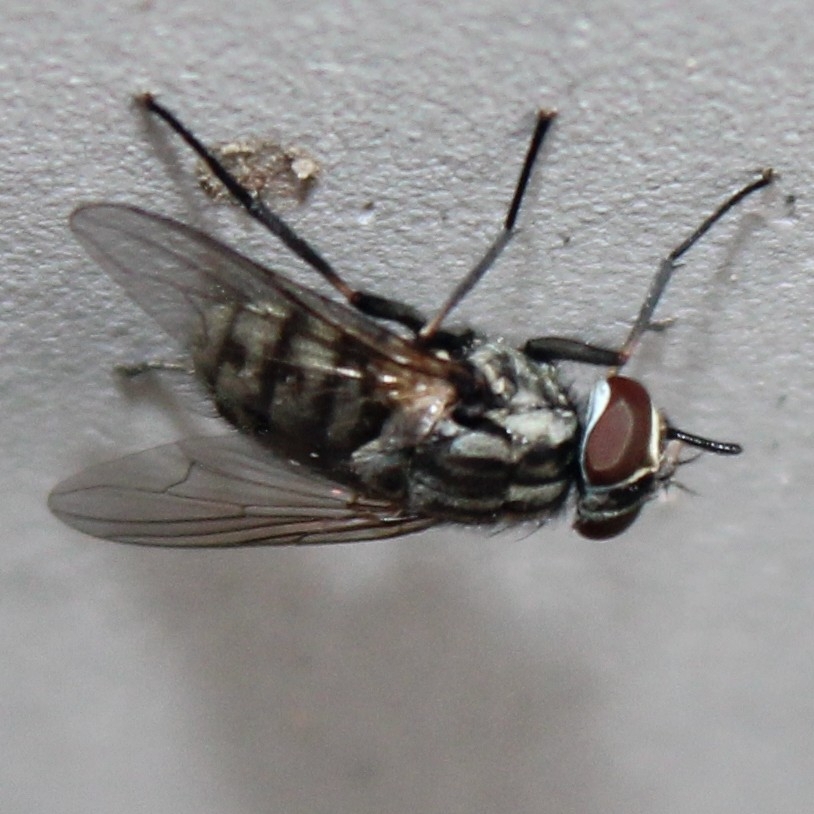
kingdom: Animalia
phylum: Arthropoda
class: Insecta
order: Diptera
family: Muscidae
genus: Stomoxys
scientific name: Stomoxys calcitrans
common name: Stable fly
